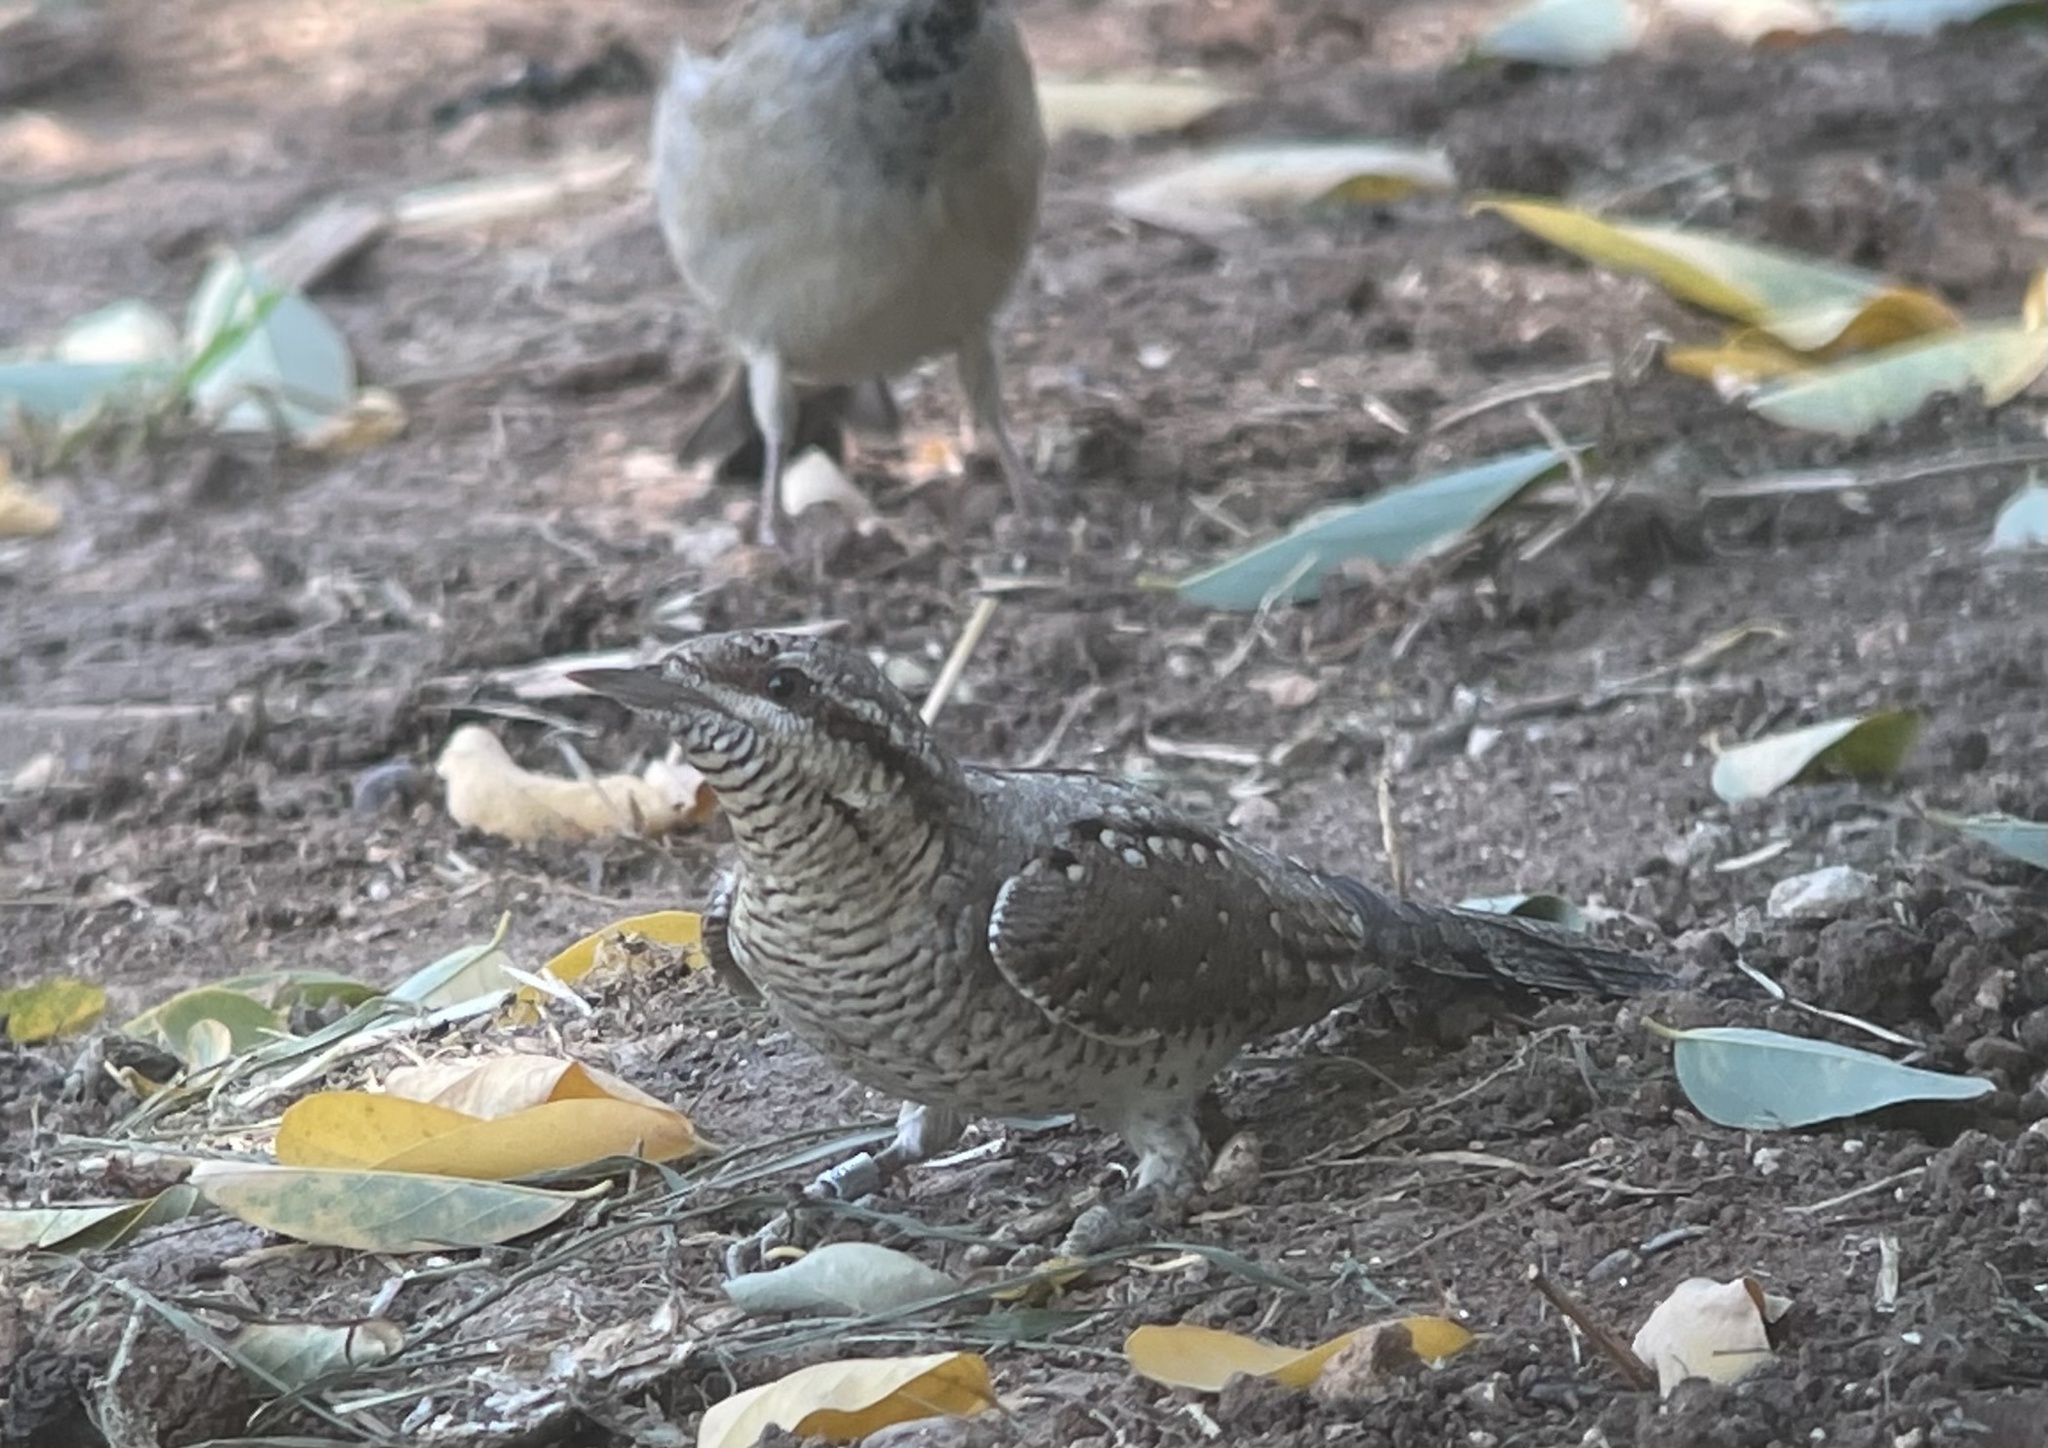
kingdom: Animalia
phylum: Chordata
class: Aves
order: Piciformes
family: Picidae
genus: Jynx
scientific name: Jynx torquilla
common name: Eurasian wryneck
